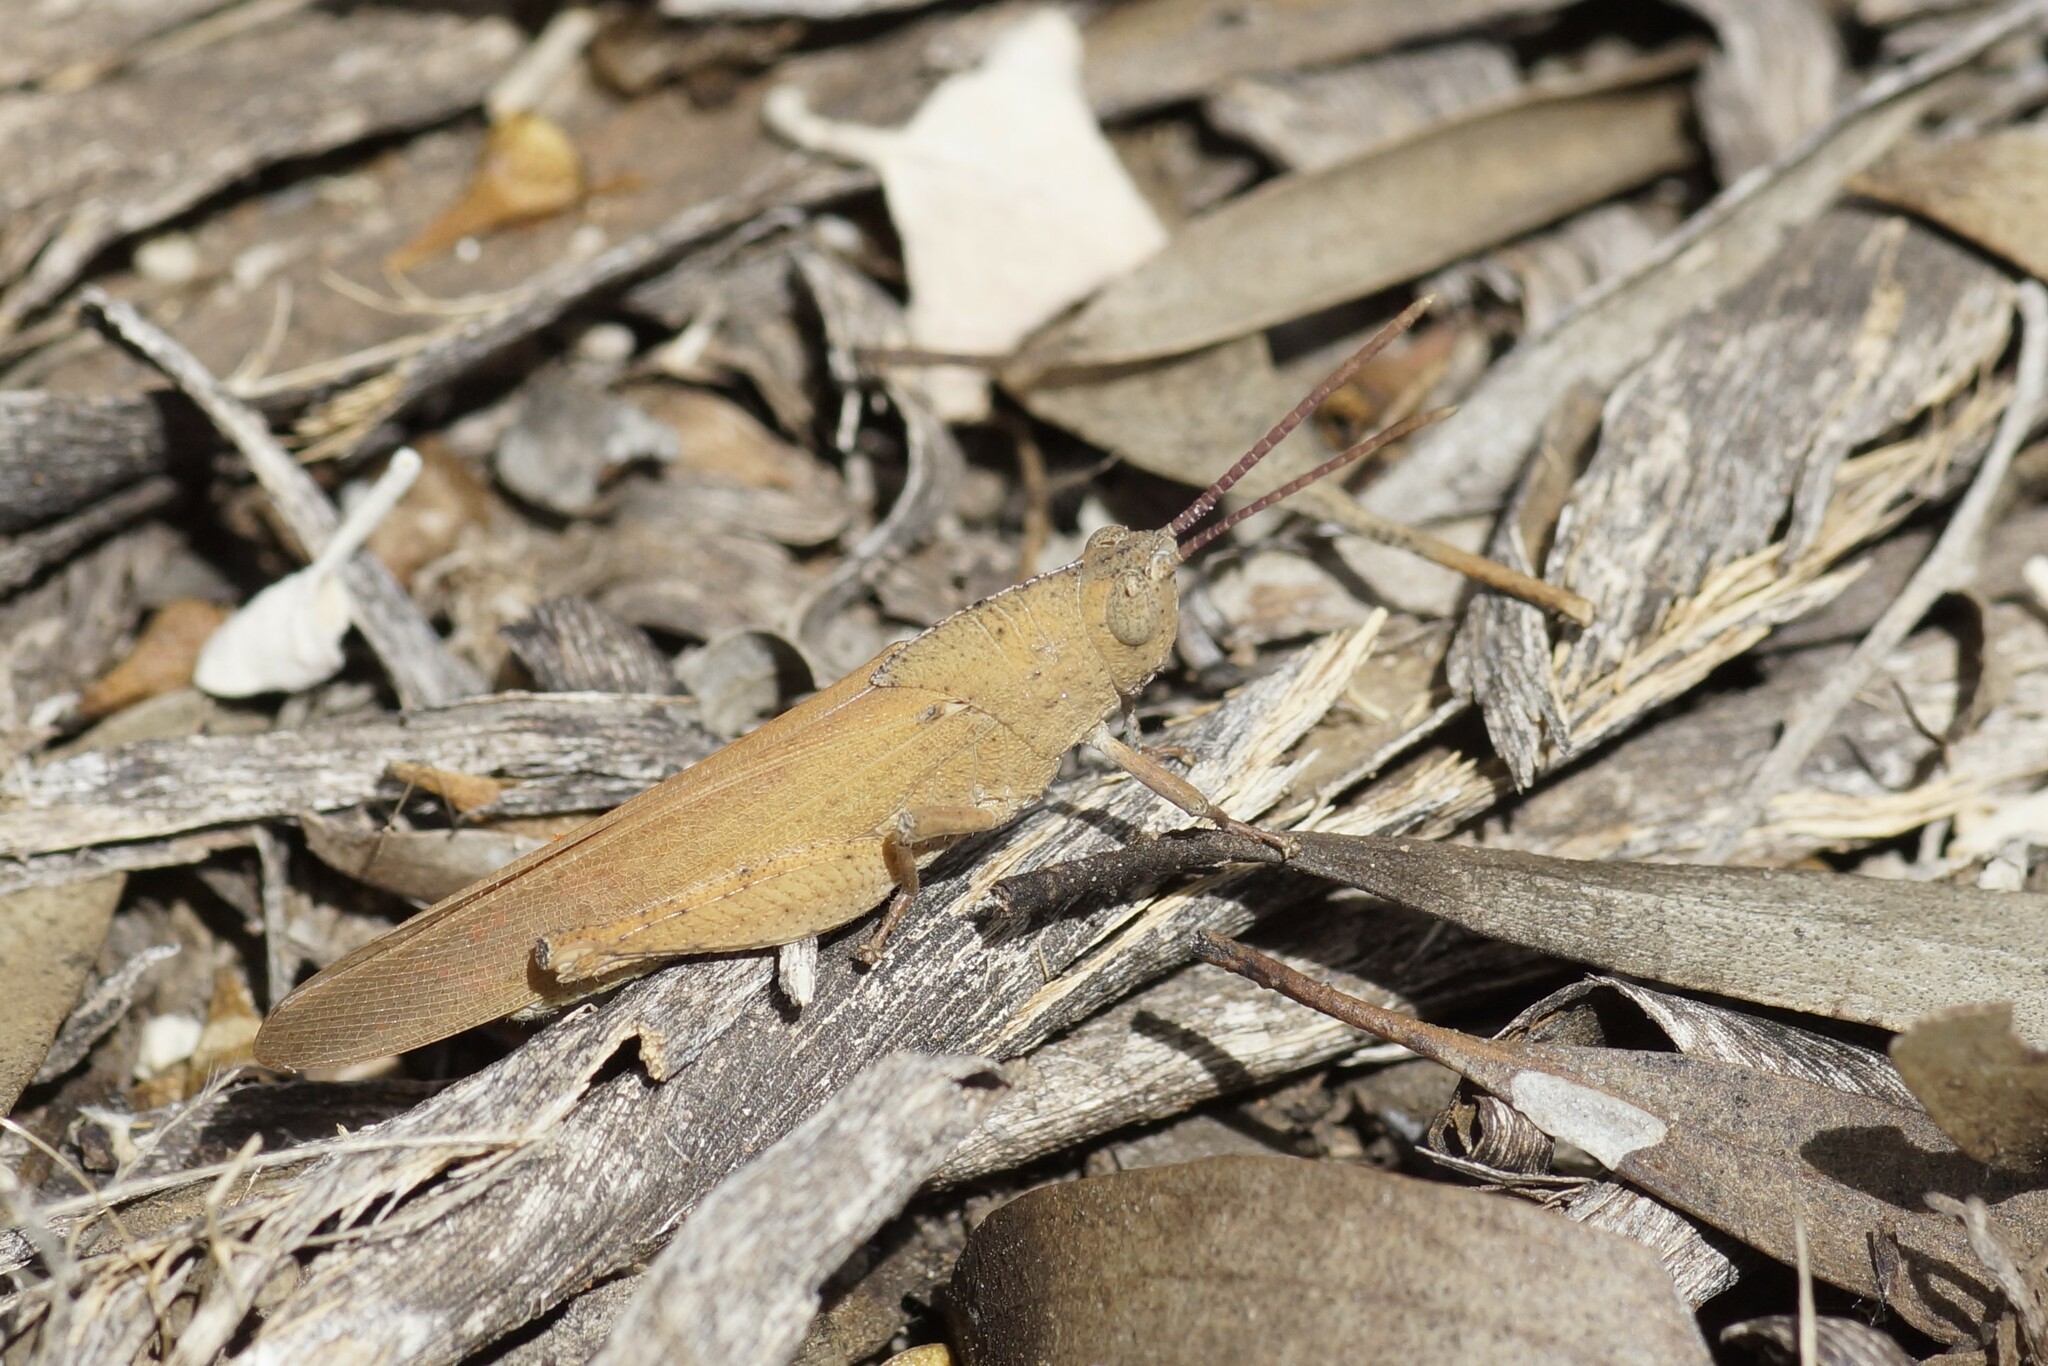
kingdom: Animalia
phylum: Arthropoda
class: Insecta
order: Orthoptera
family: Acrididae
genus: Goniaea
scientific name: Goniaea opomaloides
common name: Mimetic gumleaf grasshopper
